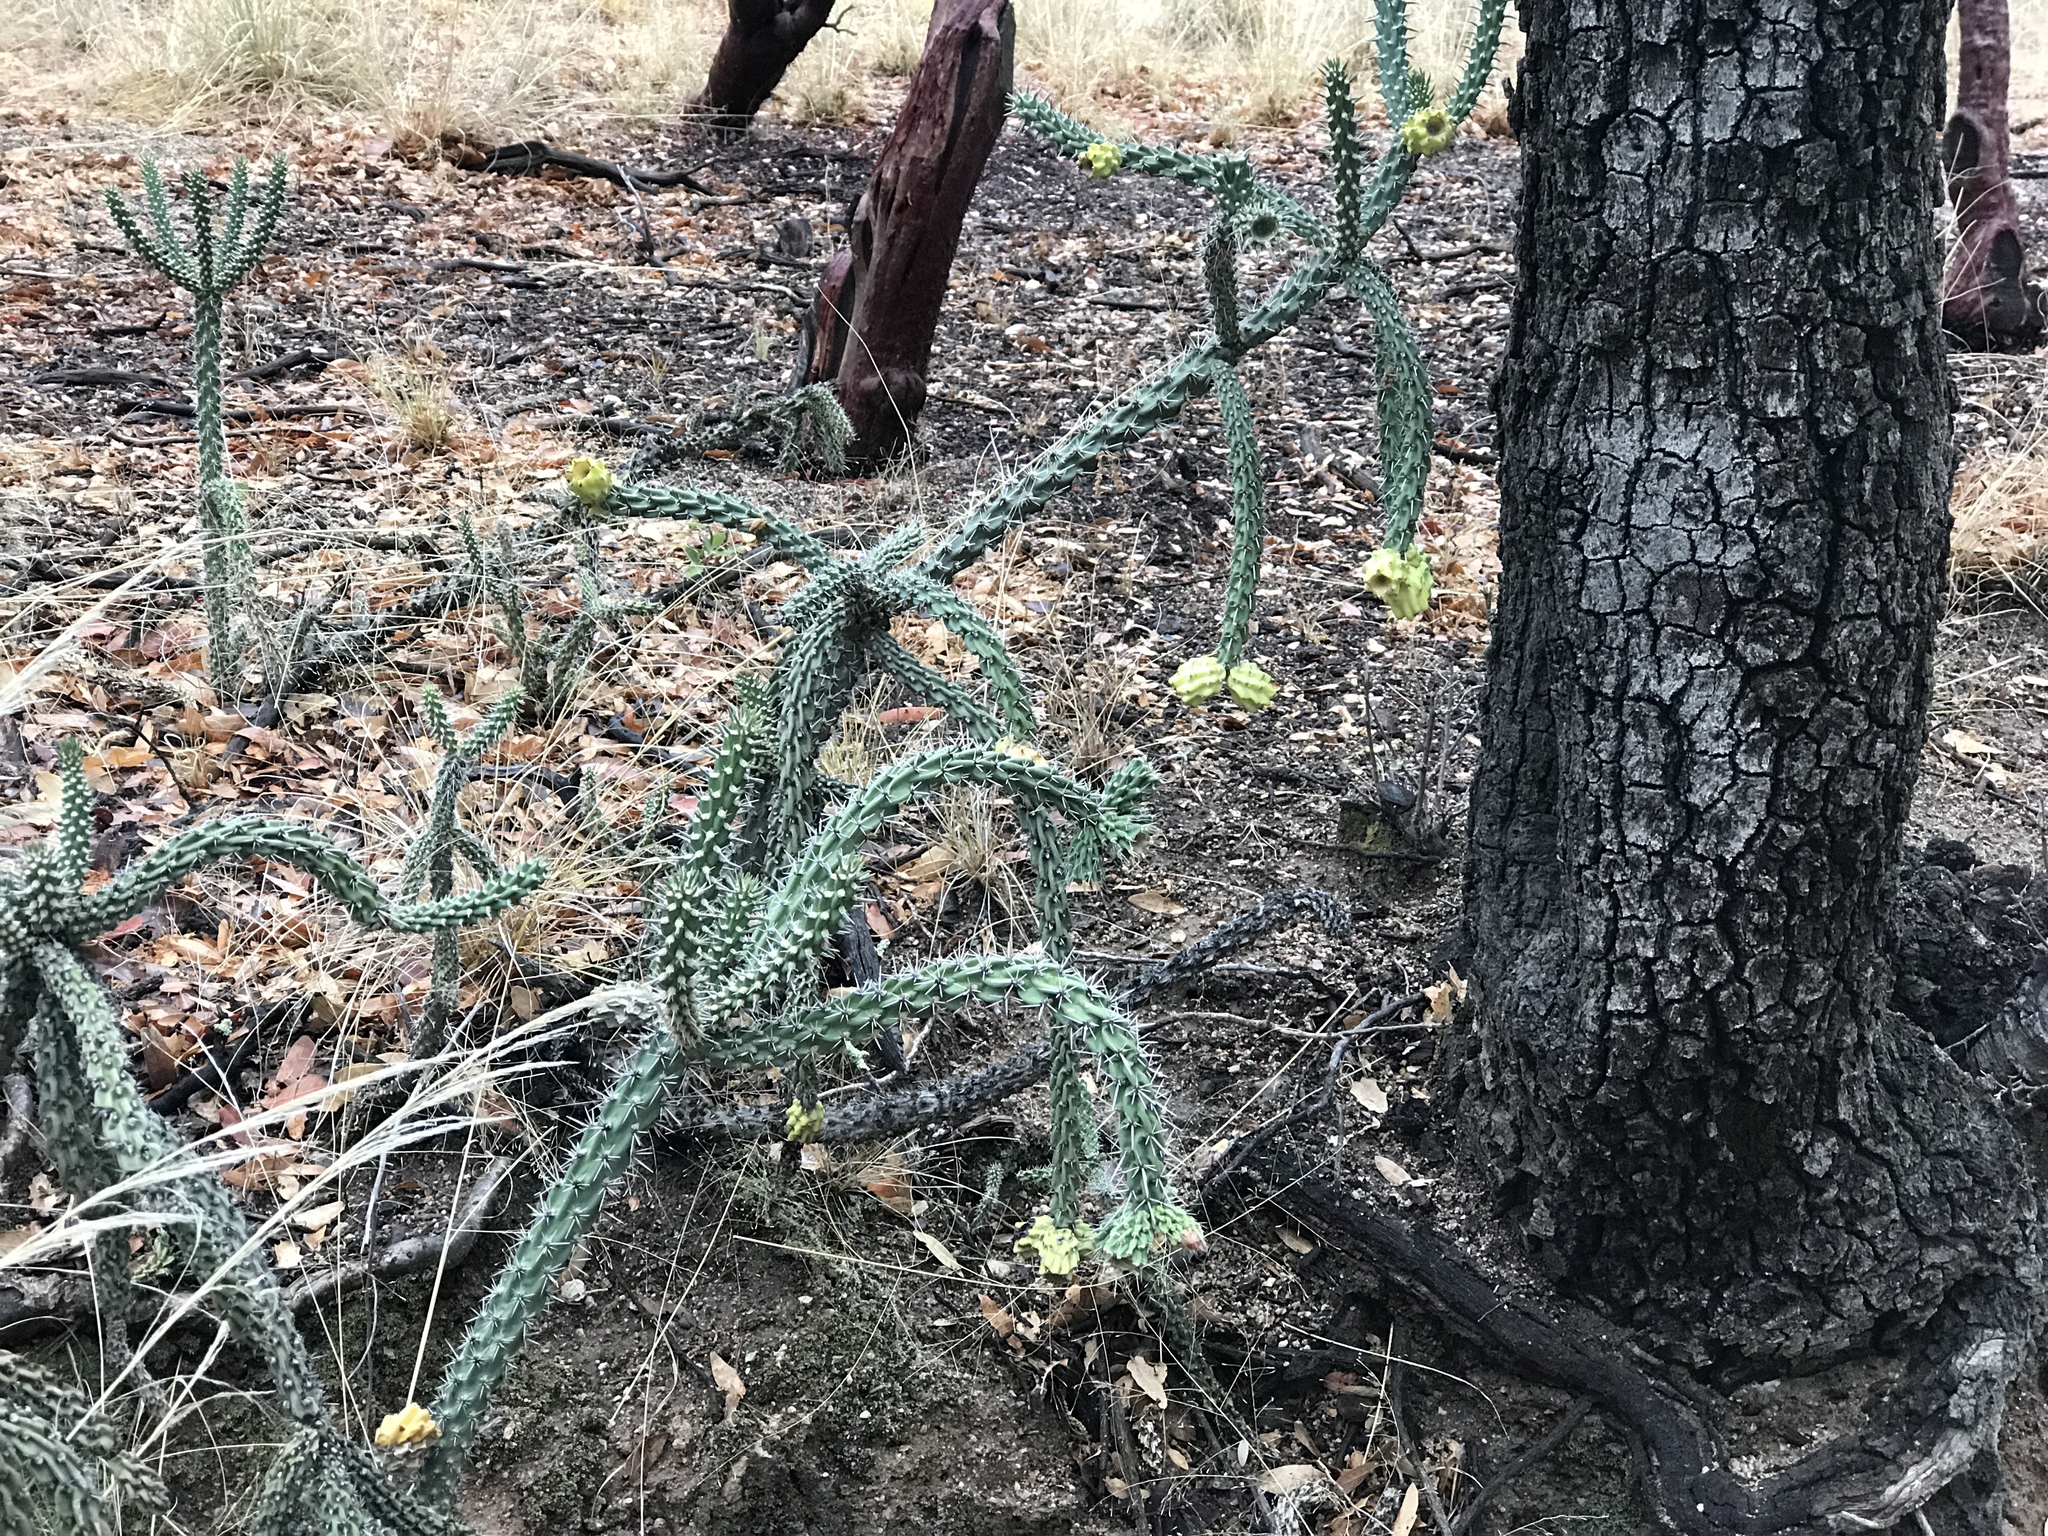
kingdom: Plantae
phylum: Tracheophyta
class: Magnoliopsida
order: Caryophyllales
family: Cactaceae
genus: Cylindropuntia
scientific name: Cylindropuntia imbricata
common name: Candelabrum cactus
